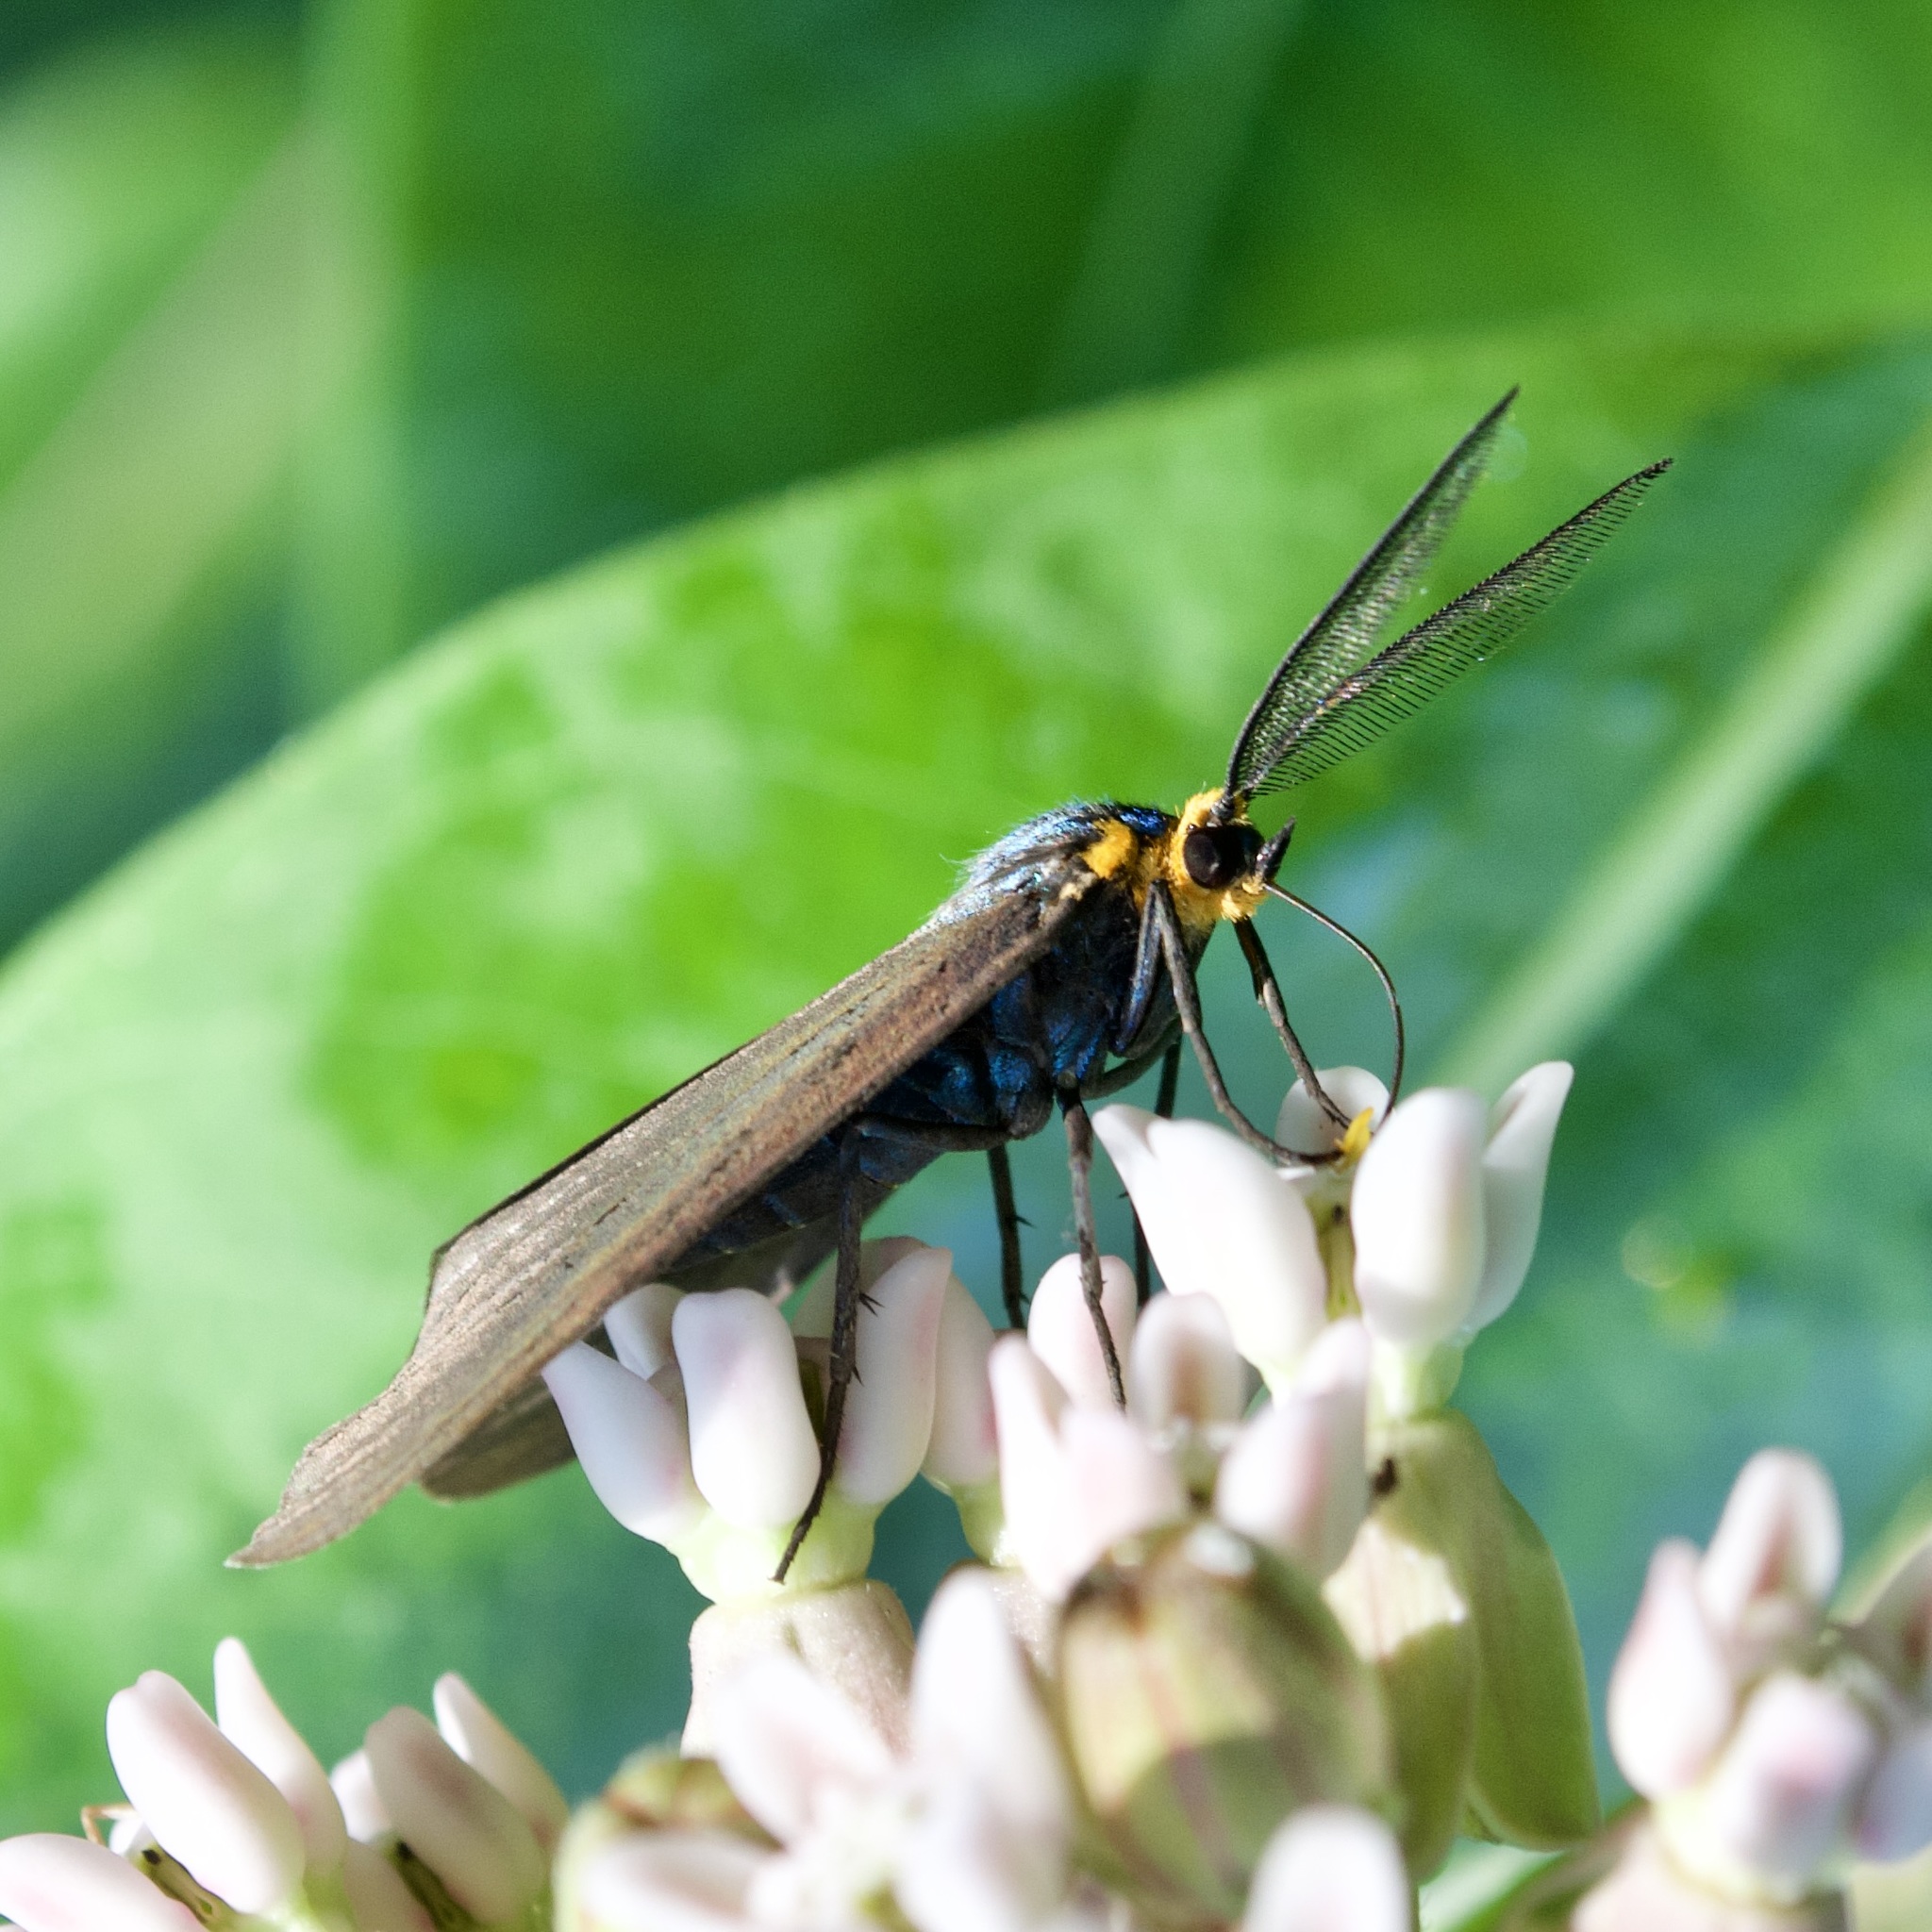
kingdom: Animalia
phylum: Arthropoda
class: Insecta
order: Lepidoptera
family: Erebidae
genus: Ctenucha
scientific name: Ctenucha virginica
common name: Virginia ctenucha moth
